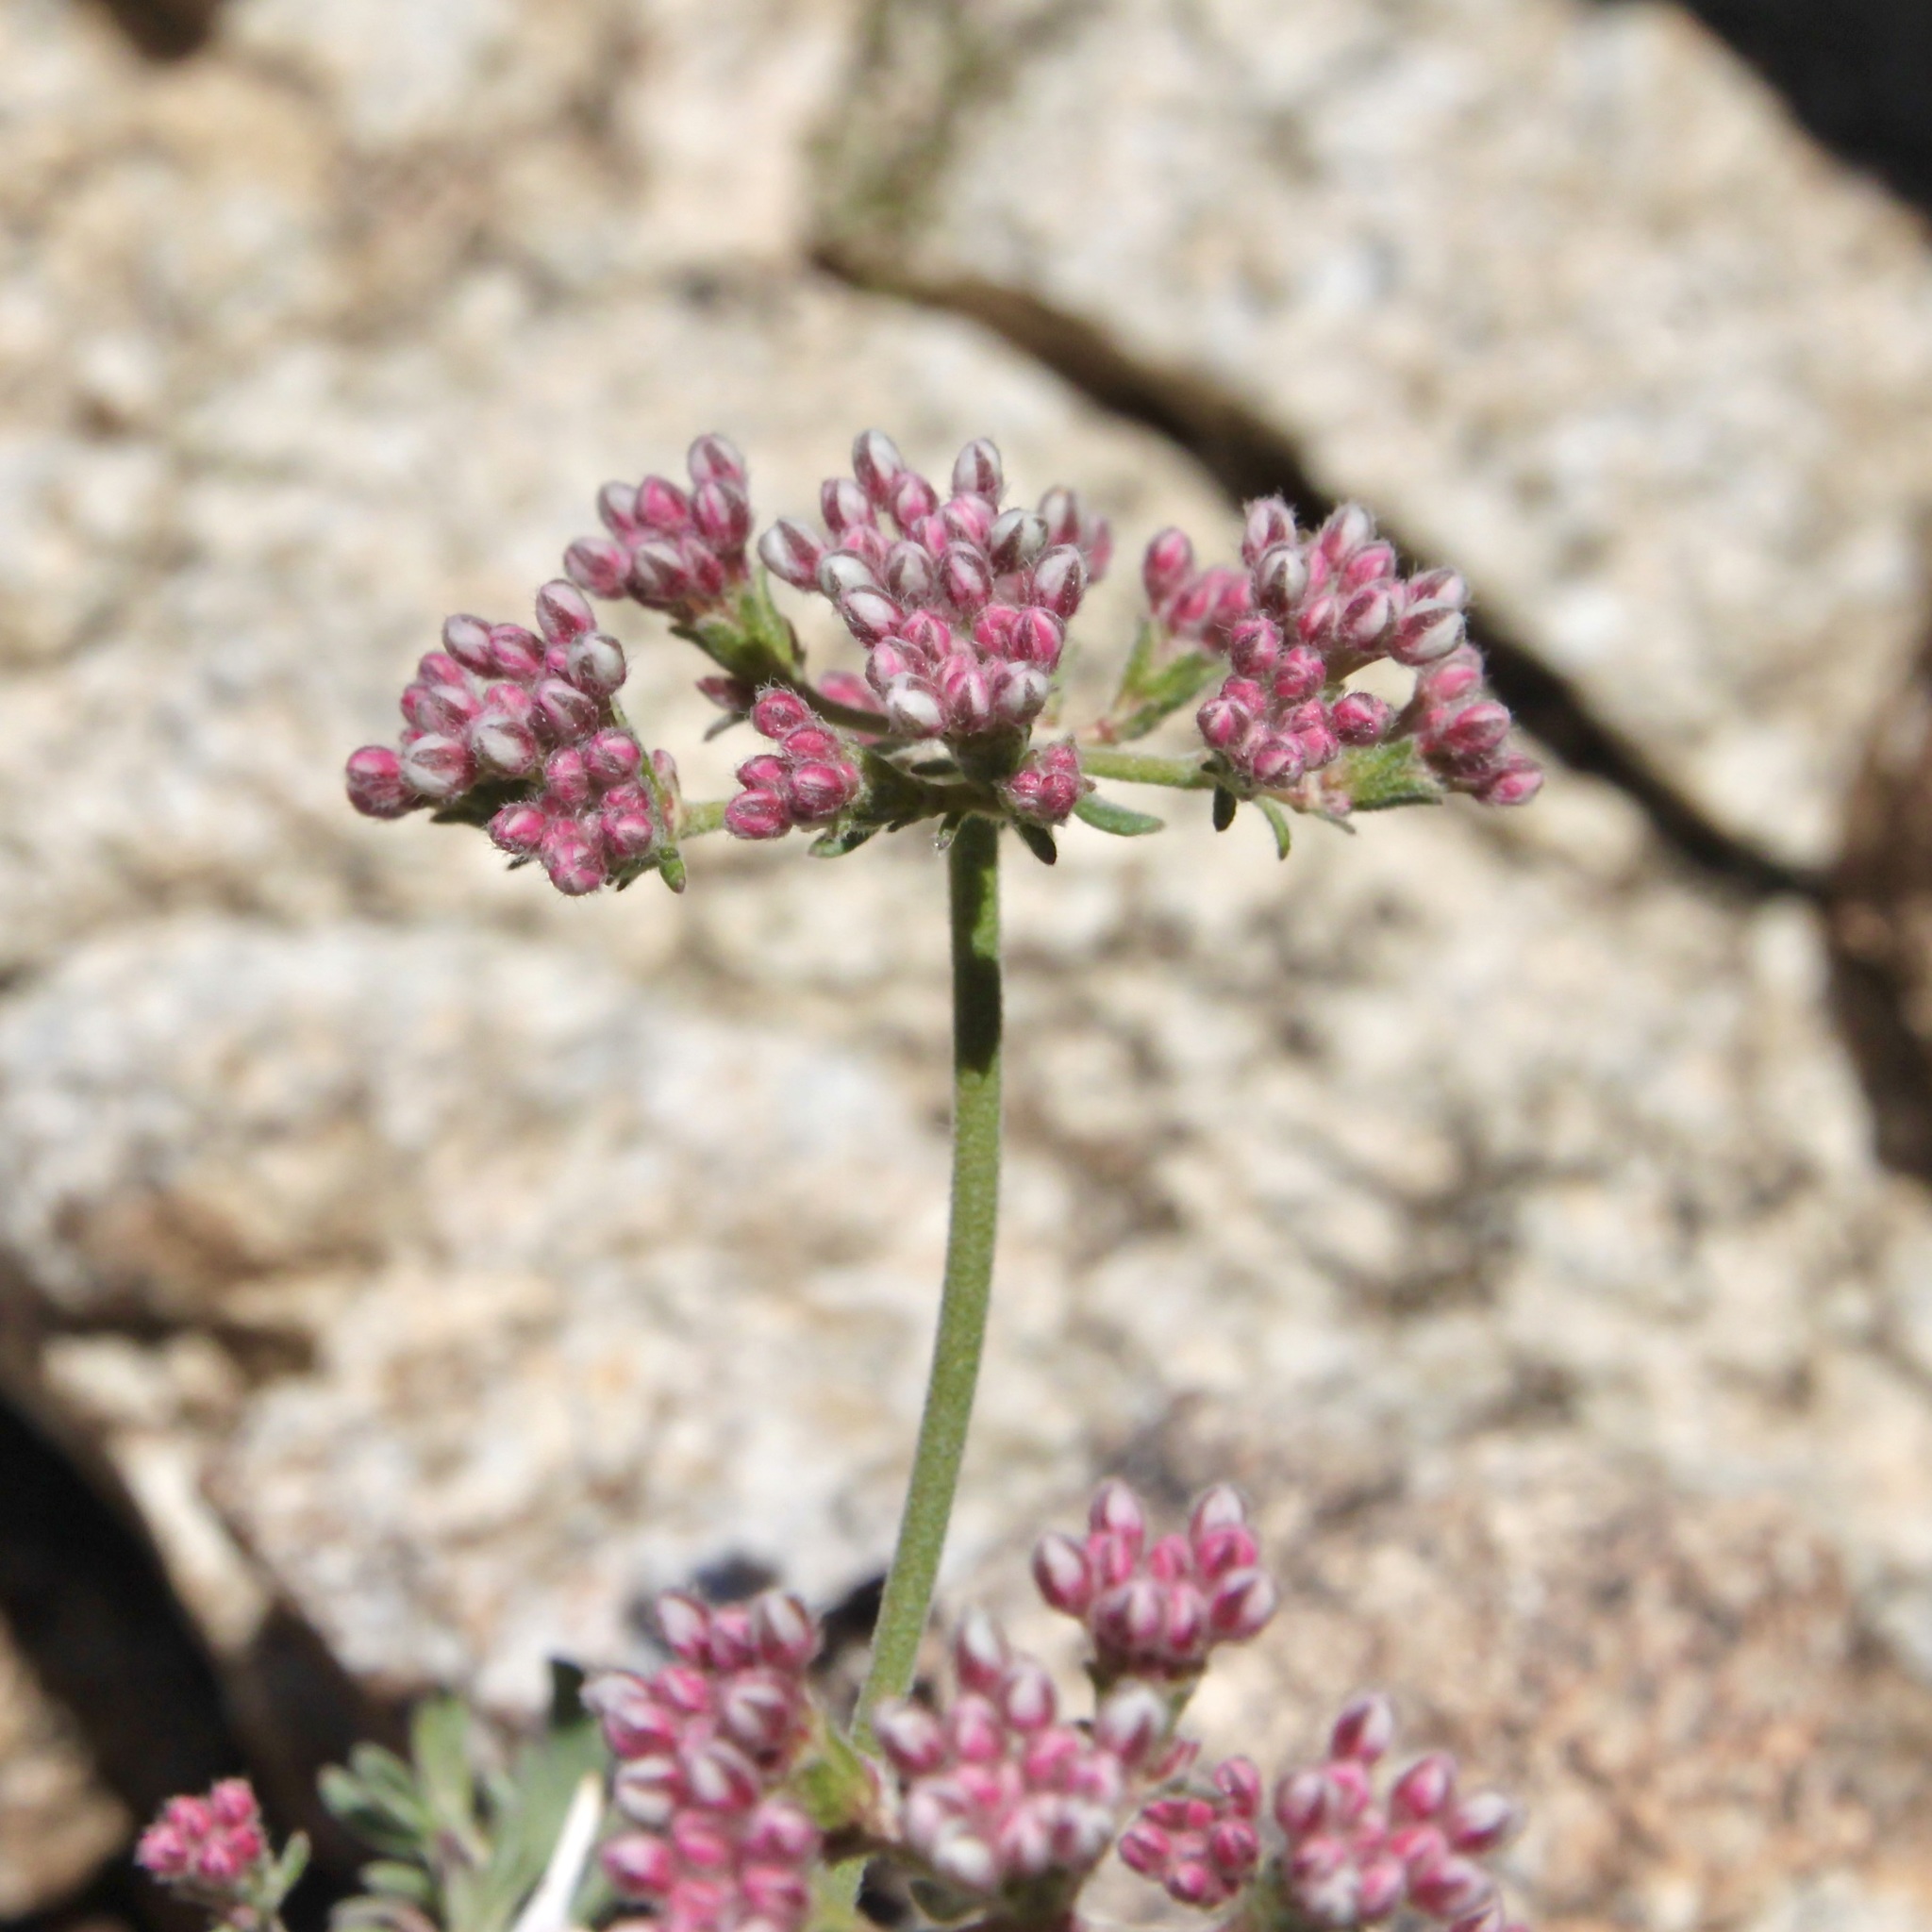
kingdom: Plantae
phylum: Tracheophyta
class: Magnoliopsida
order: Caryophyllales
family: Polygonaceae
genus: Eriogonum
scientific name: Eriogonum fasciculatum
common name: California wild buckwheat
